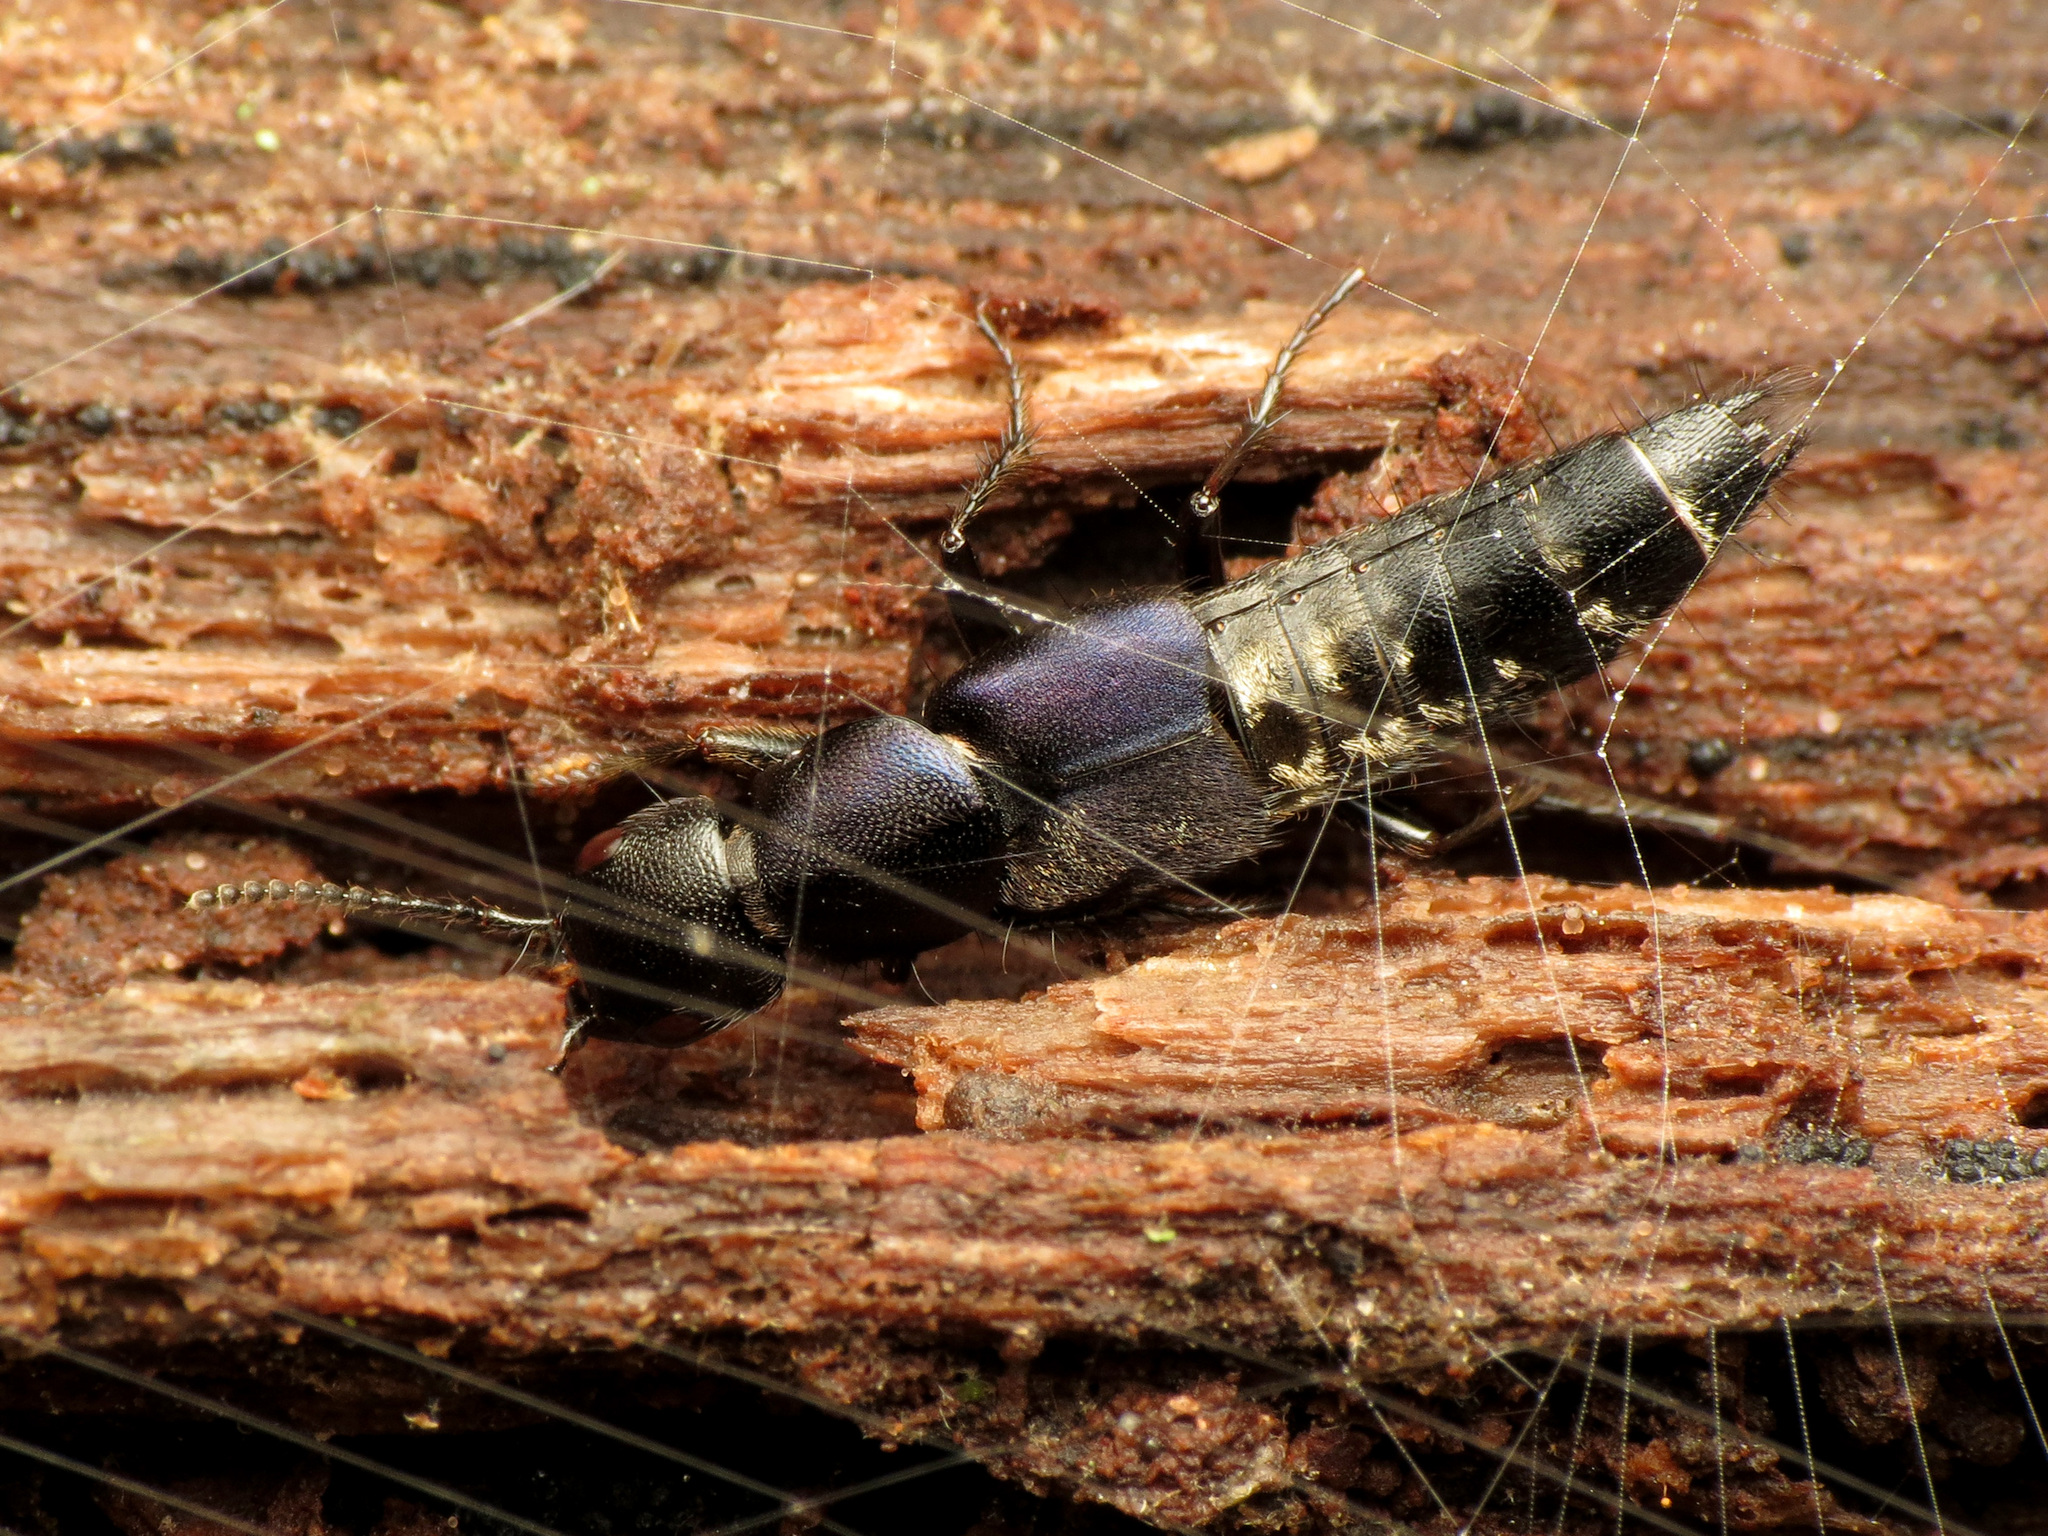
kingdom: Animalia
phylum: Arthropoda
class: Insecta
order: Coleoptera
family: Staphylinidae
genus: Platydracus
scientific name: Platydracus violaceus
